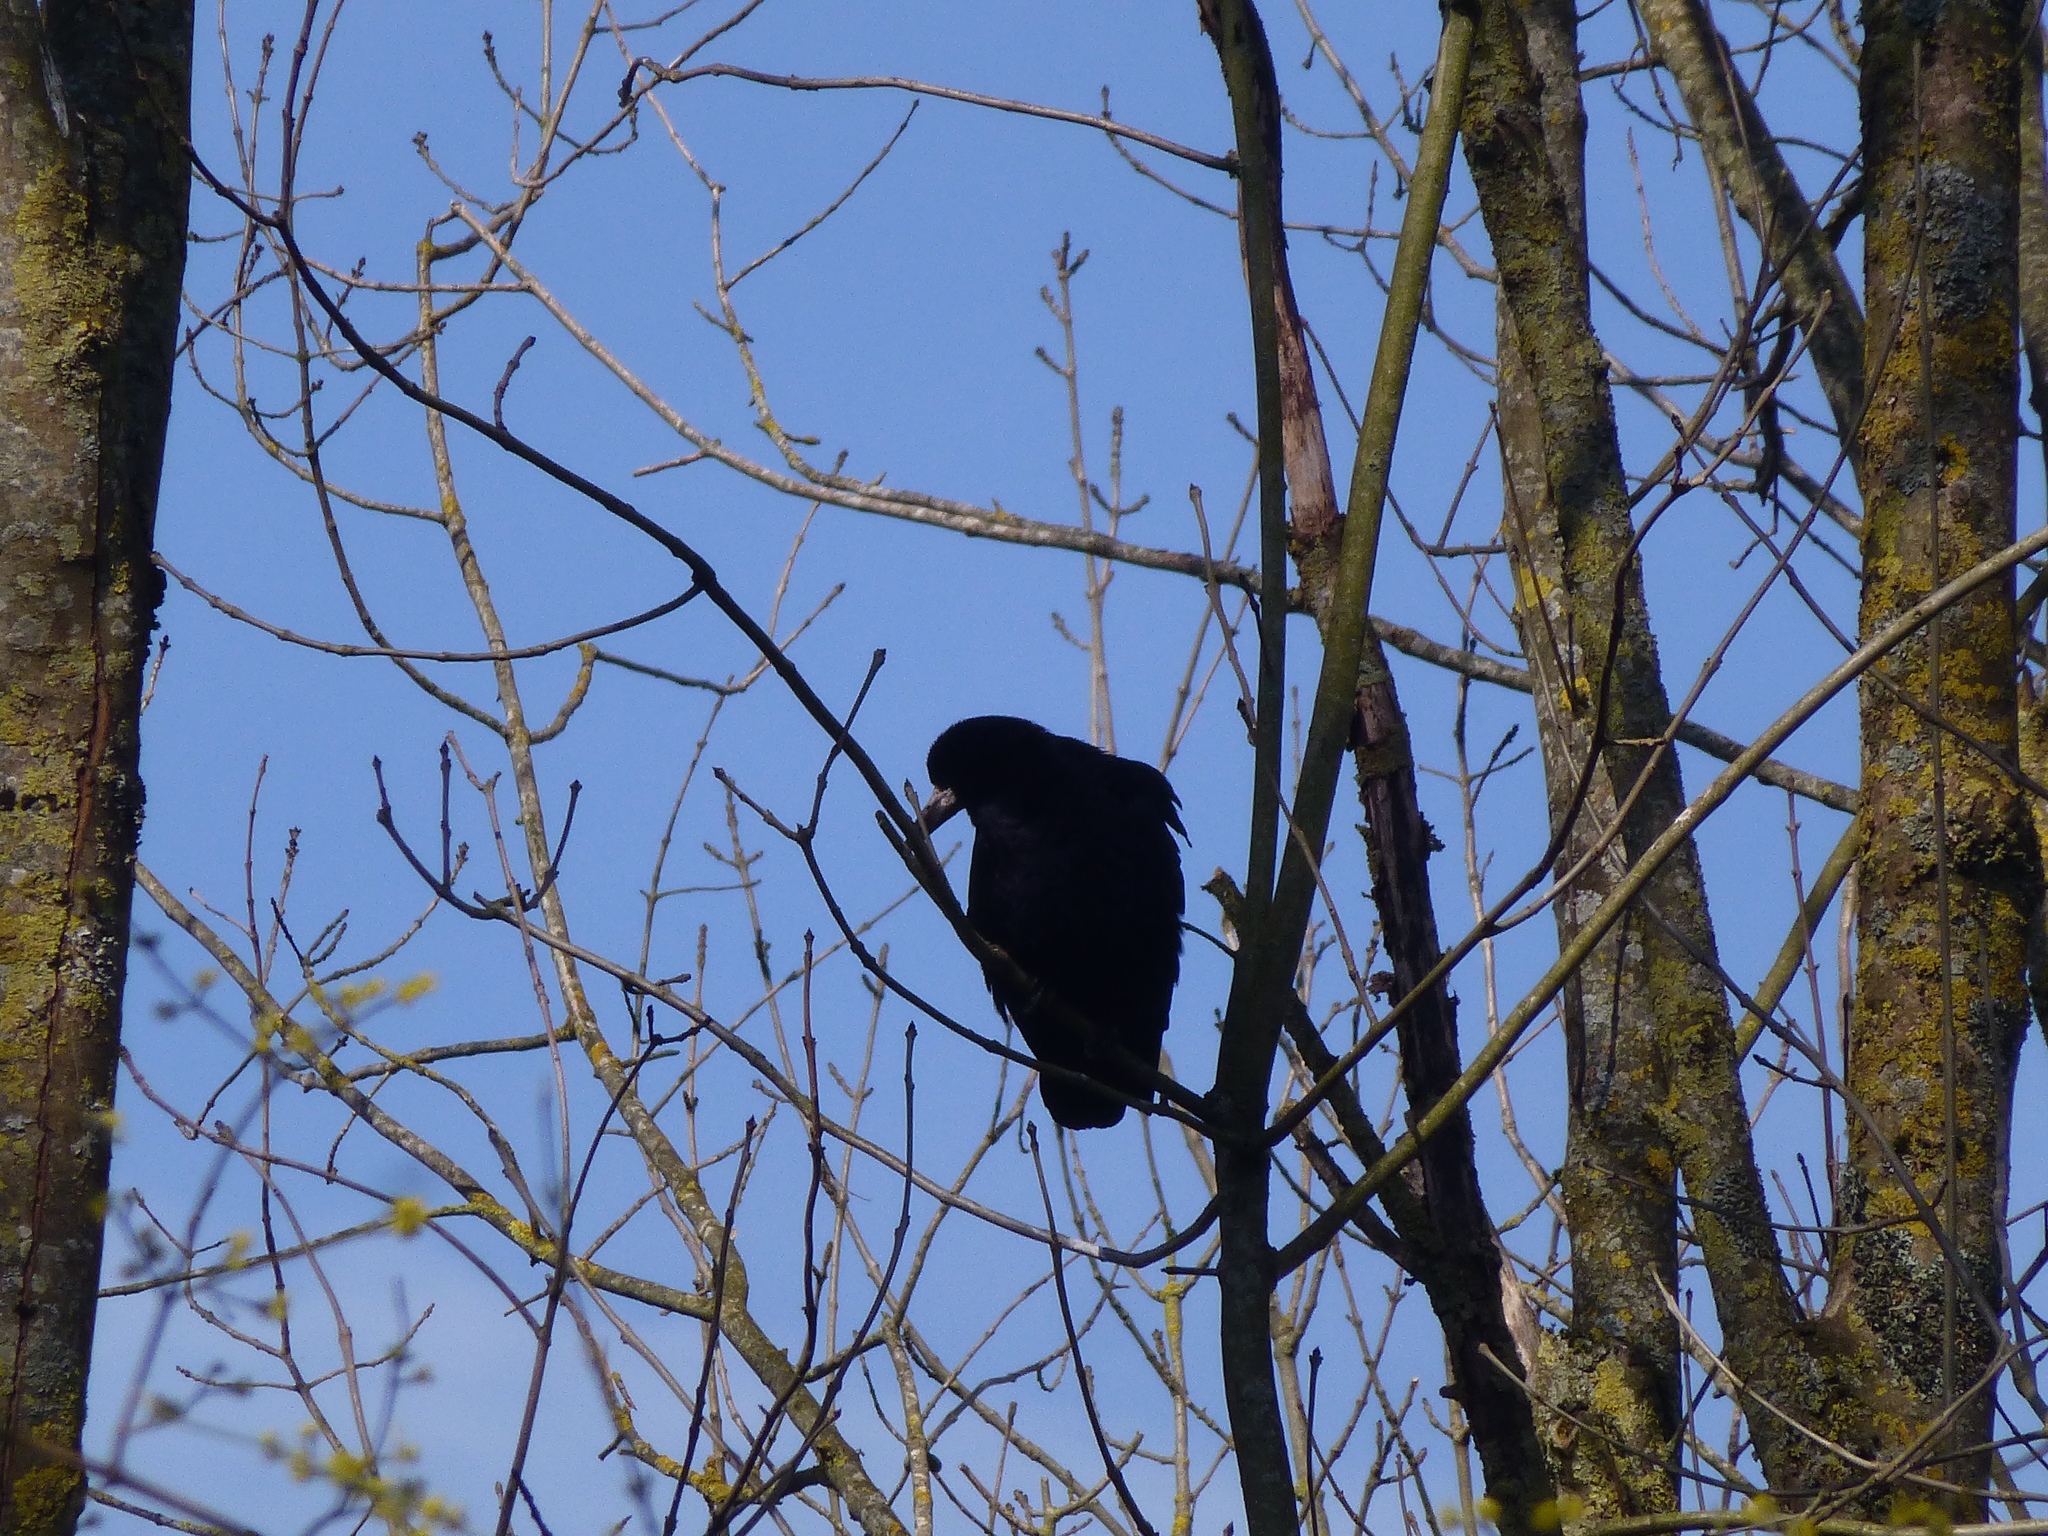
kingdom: Animalia
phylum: Chordata
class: Aves
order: Passeriformes
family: Corvidae
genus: Corvus
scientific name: Corvus frugilegus
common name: Rook
